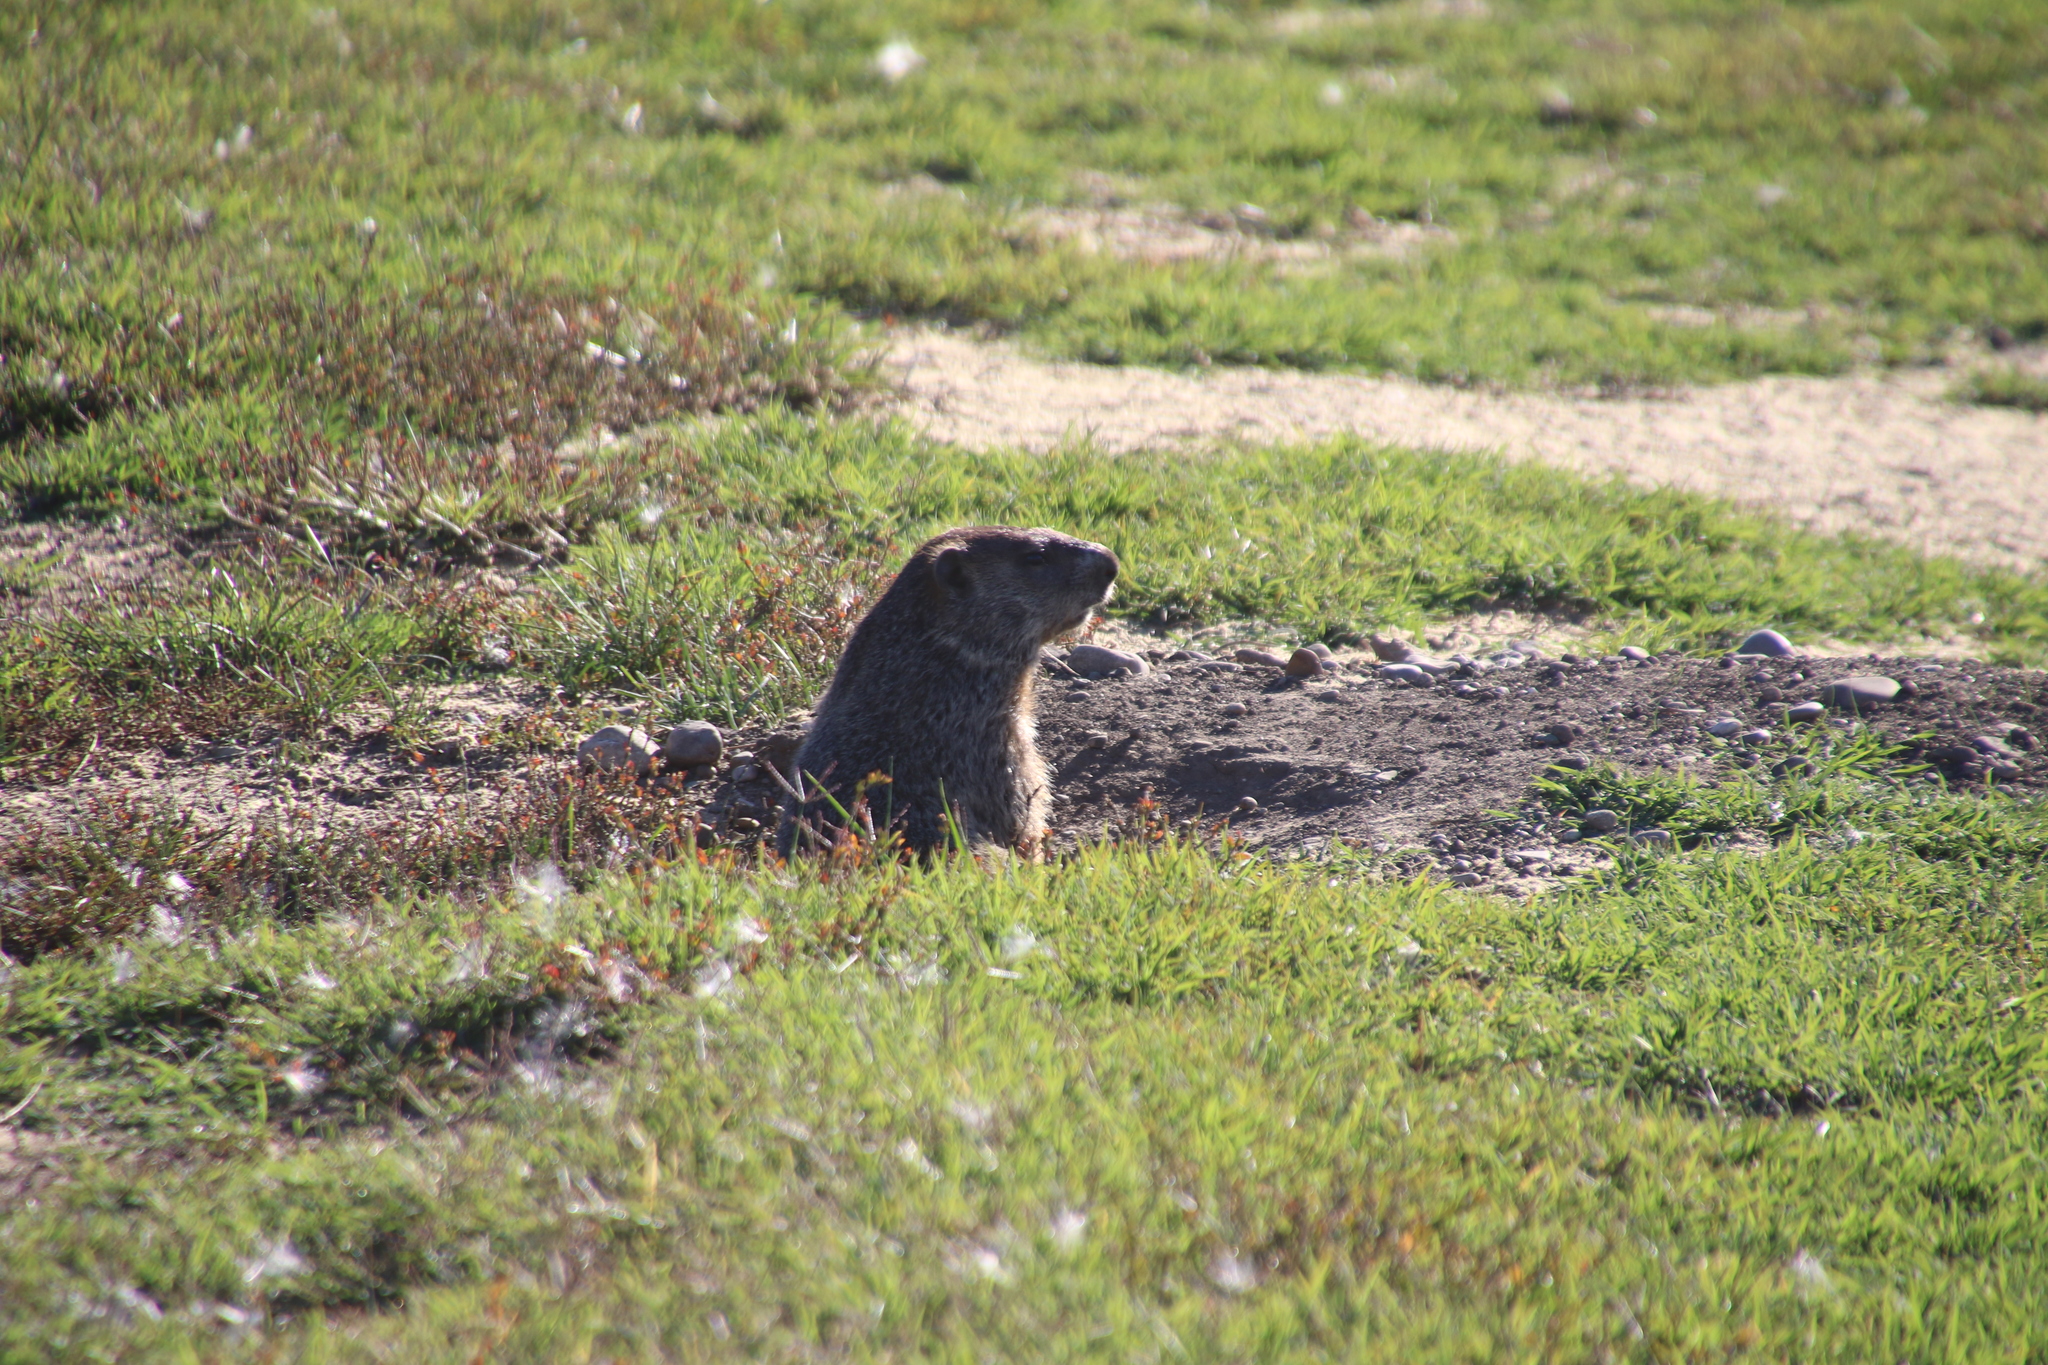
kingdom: Animalia
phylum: Chordata
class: Mammalia
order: Rodentia
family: Sciuridae
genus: Marmota
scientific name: Marmota monax
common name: Groundhog
